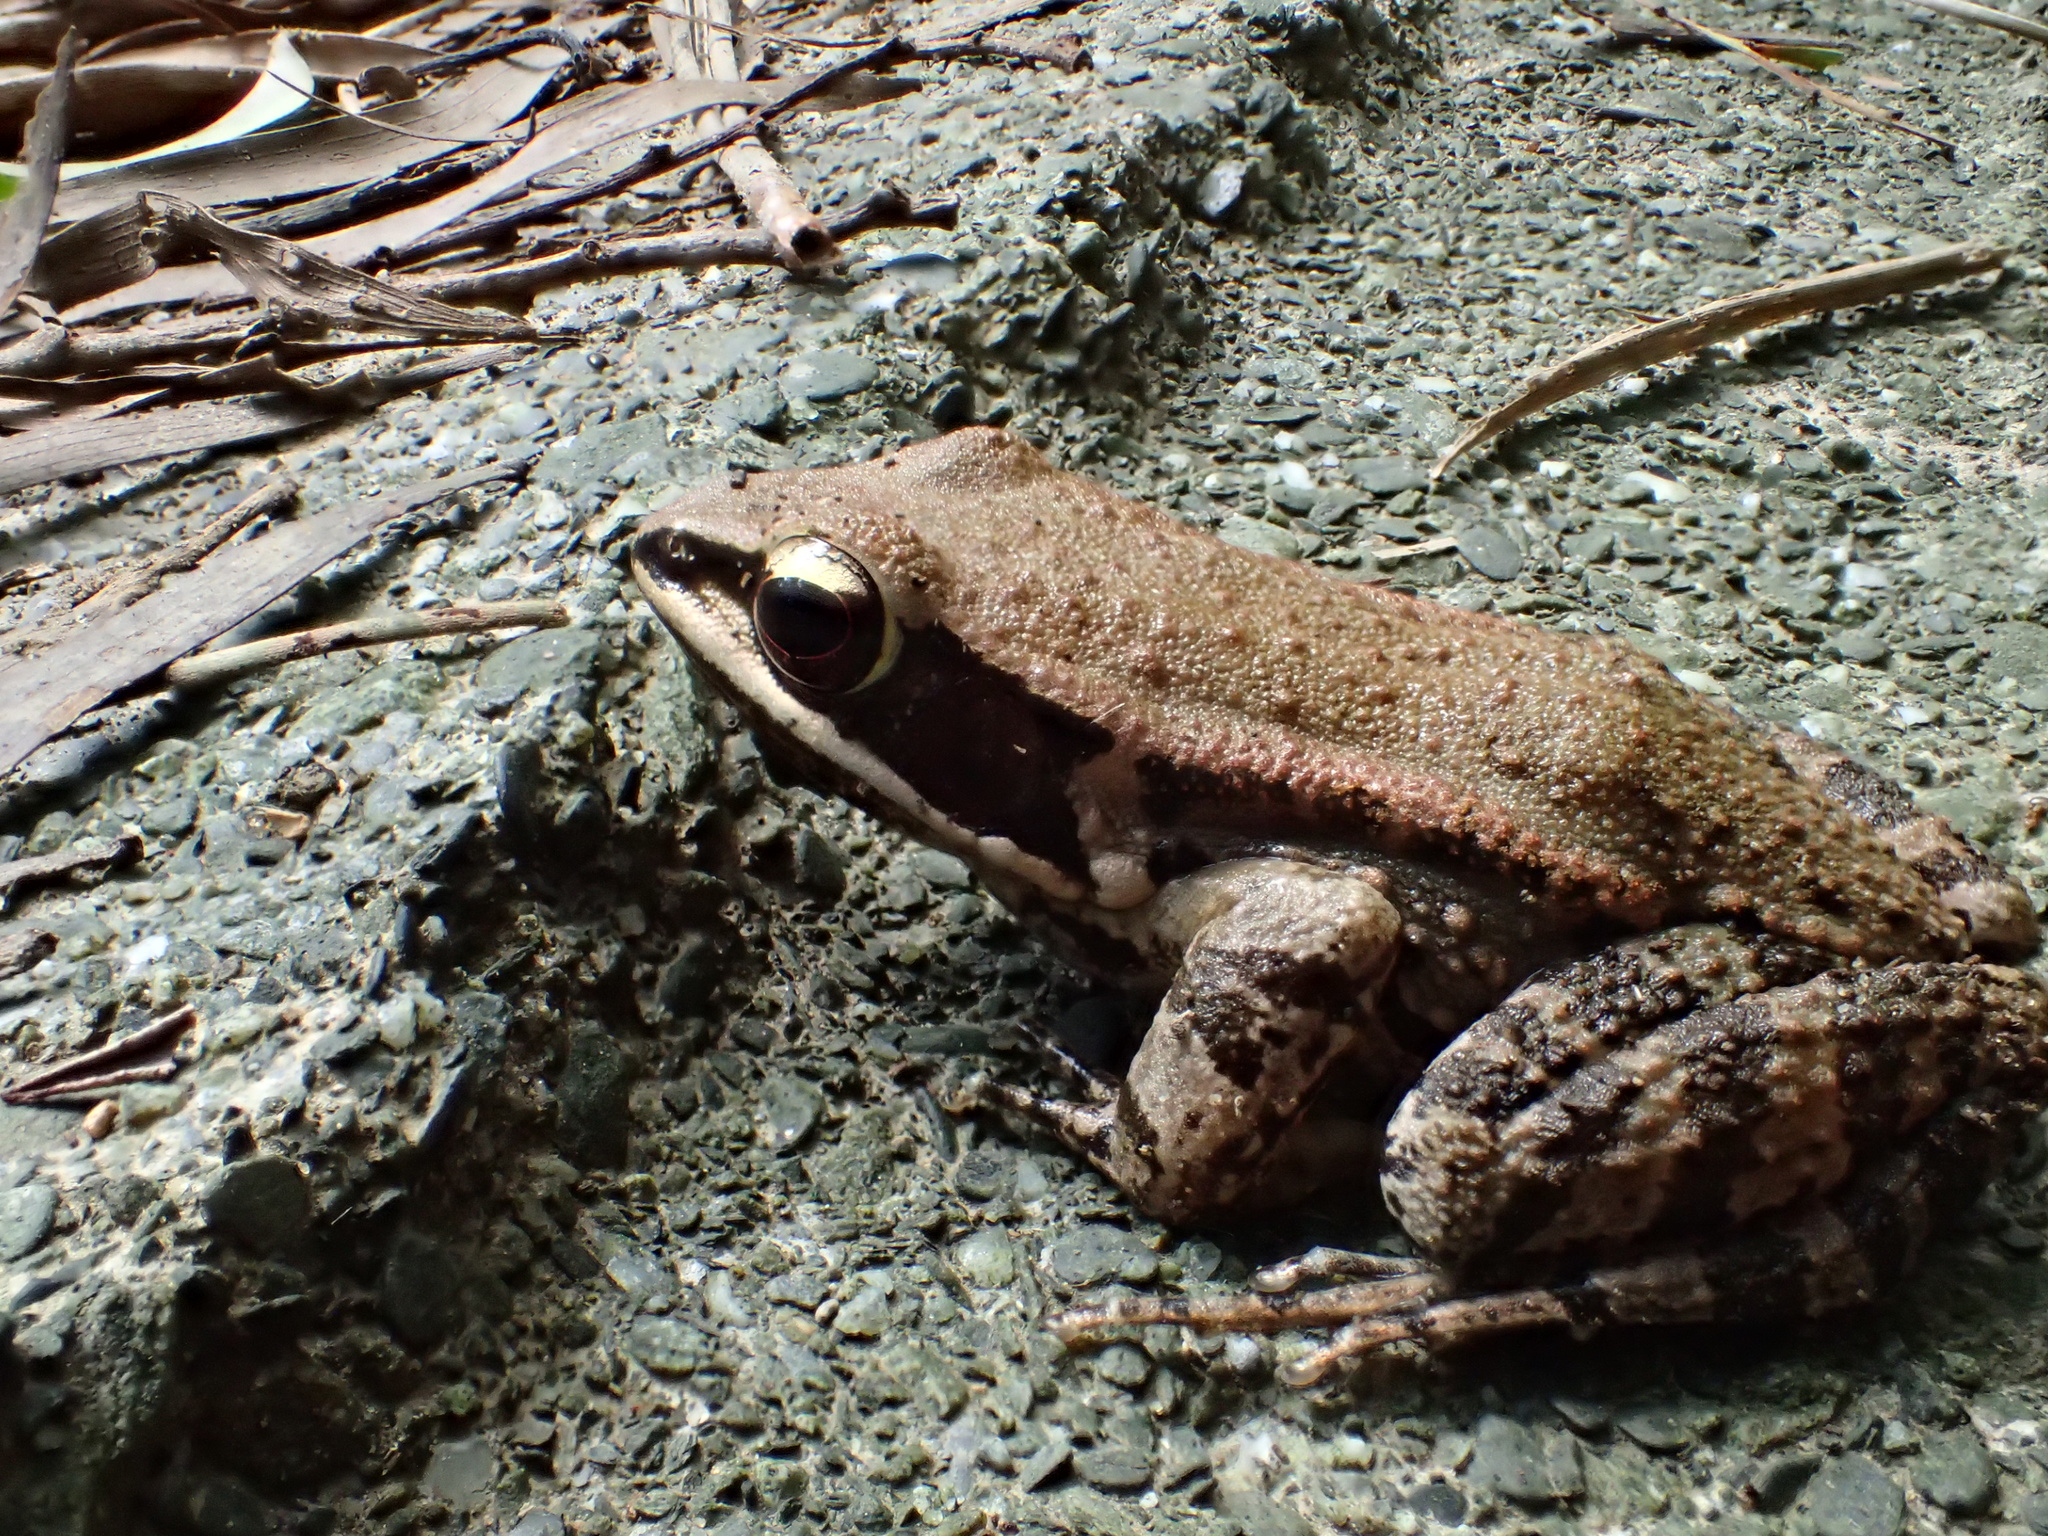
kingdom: Animalia
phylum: Chordata
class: Amphibia
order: Anura
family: Ranidae
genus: Hylarana
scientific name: Hylarana latouchii
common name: Broad-folded frog
